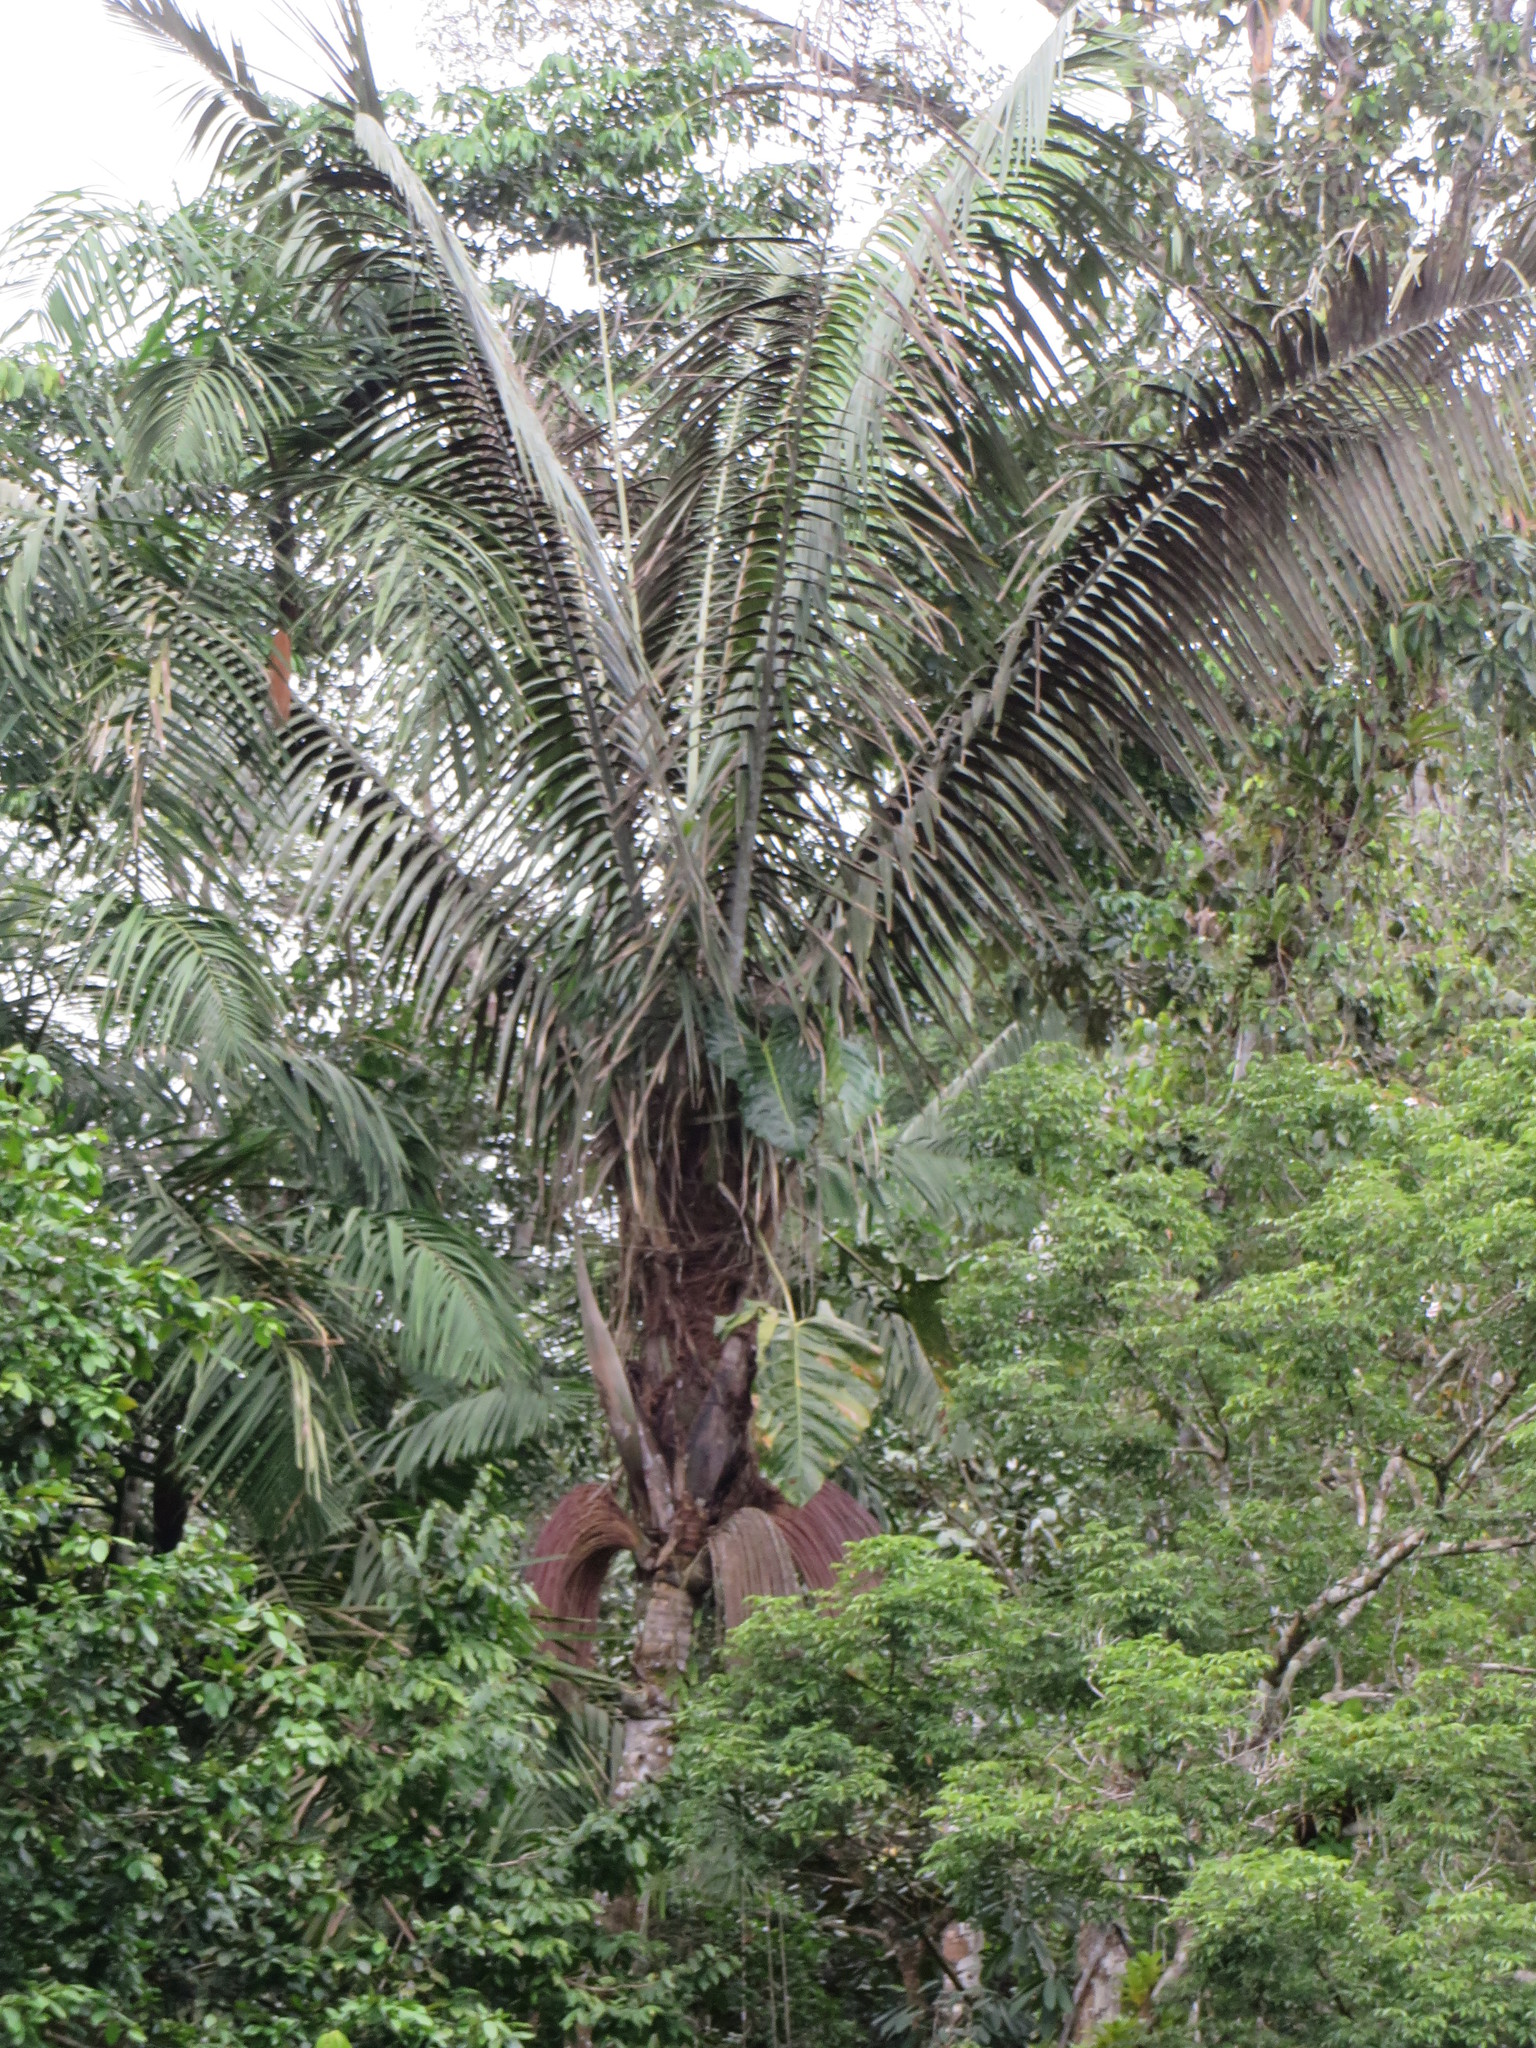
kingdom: Plantae
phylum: Tracheophyta
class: Liliopsida
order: Arecales
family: Arecaceae
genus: Oenocarpus
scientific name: Oenocarpus bataua
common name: Bataua palm
